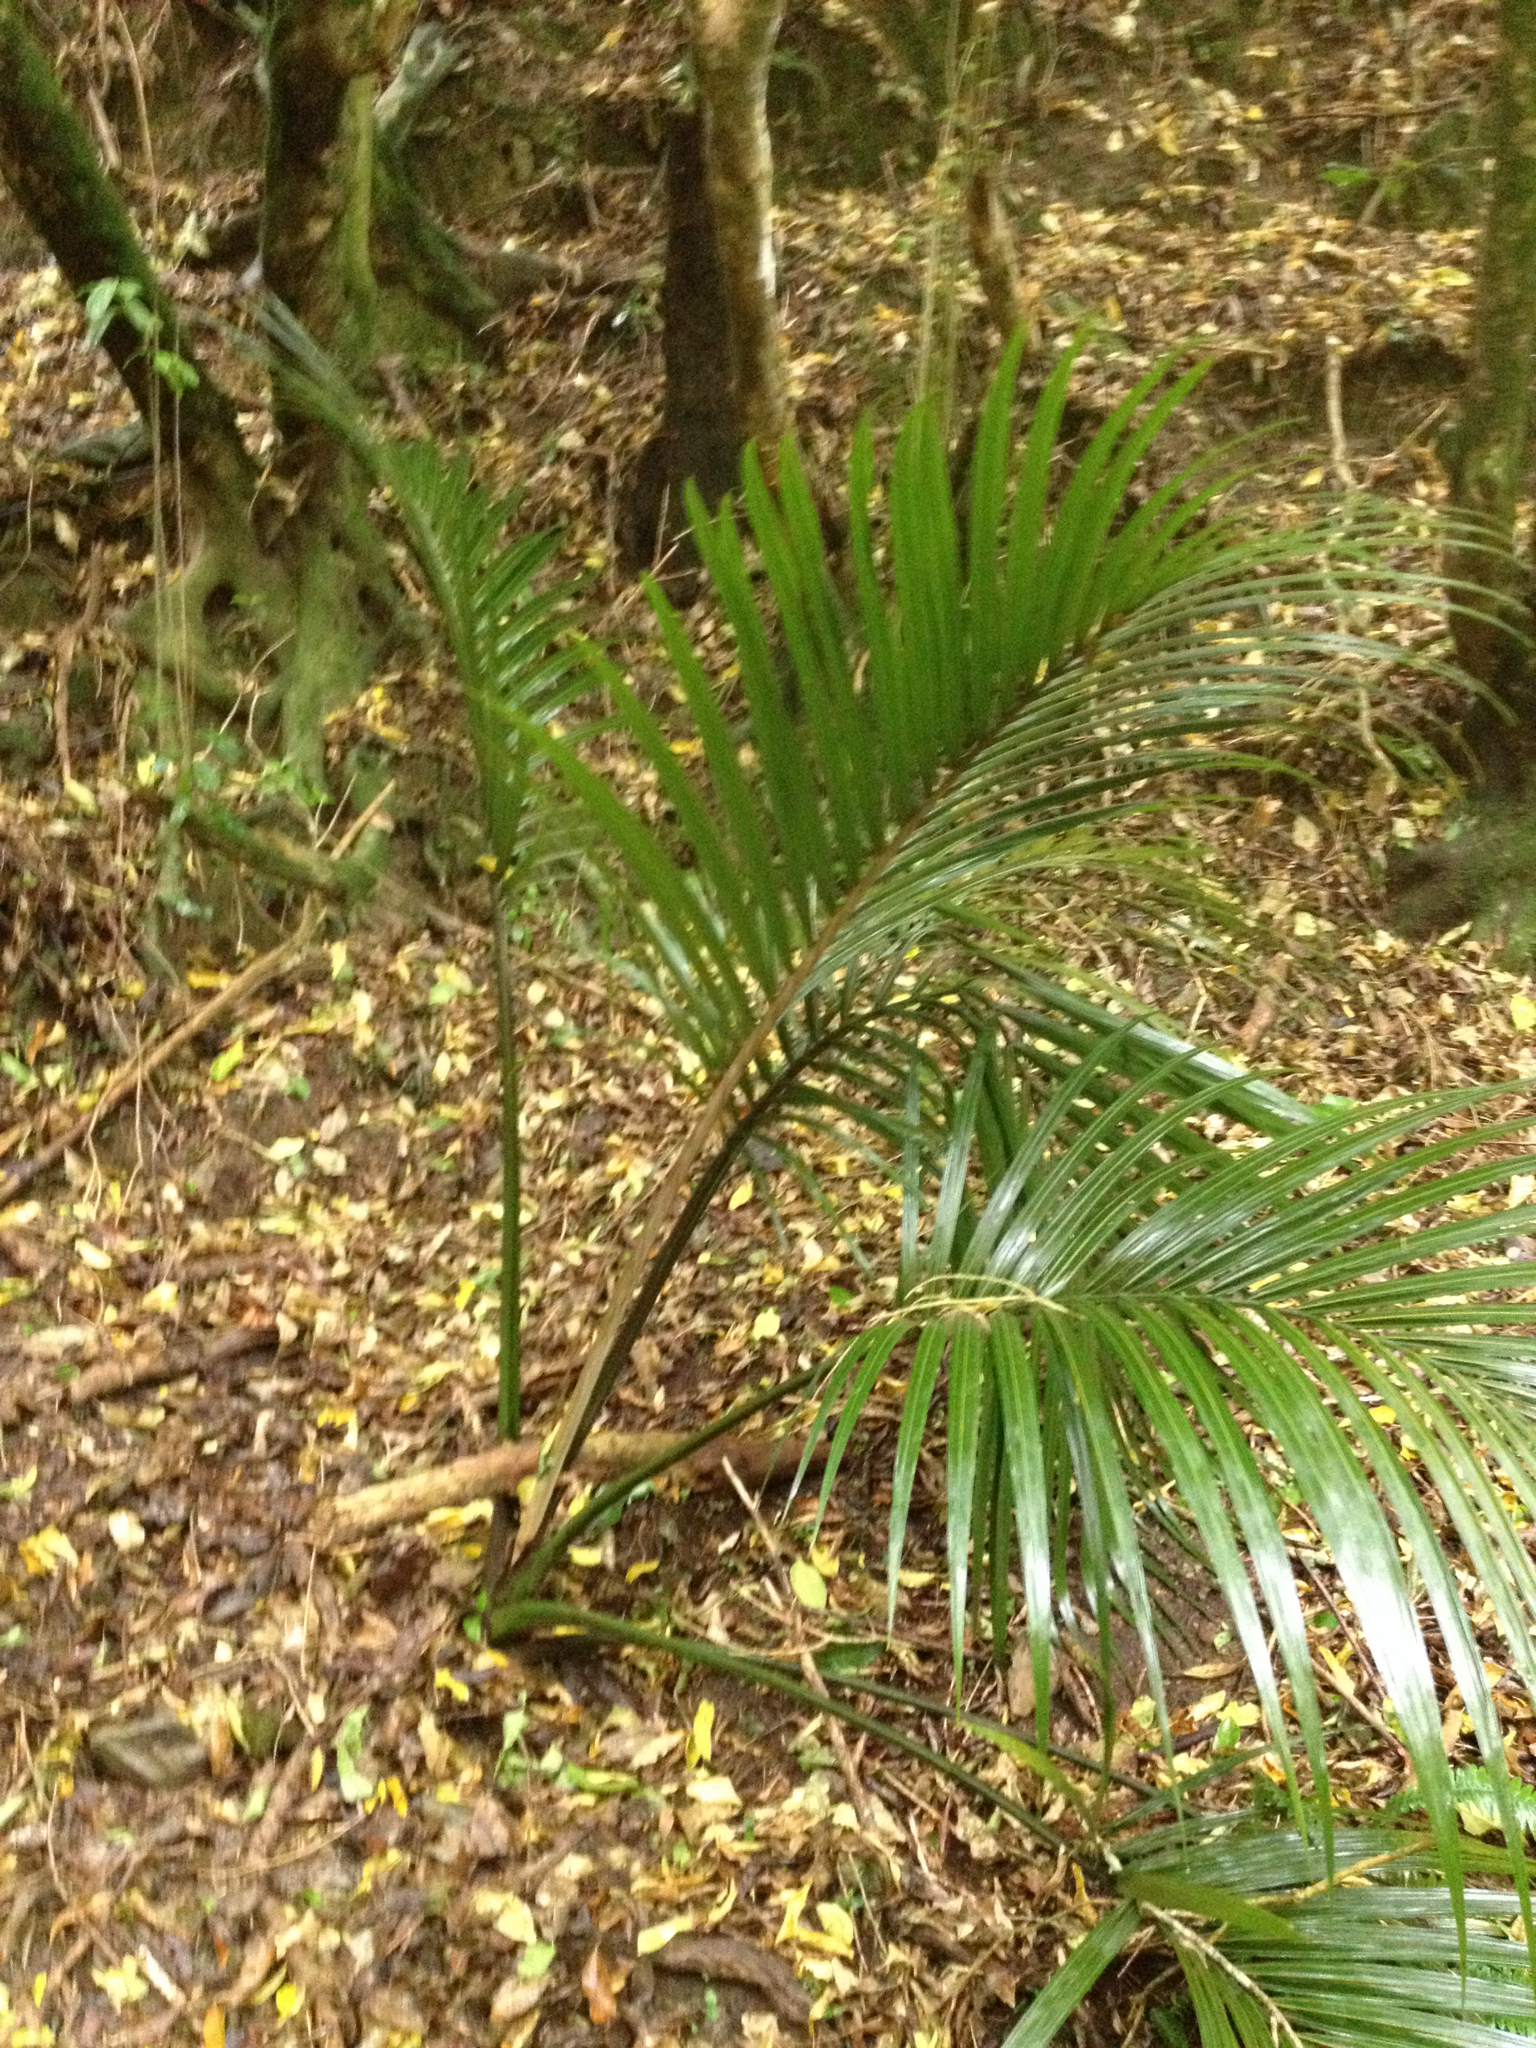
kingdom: Plantae
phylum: Tracheophyta
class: Liliopsida
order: Arecales
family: Arecaceae
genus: Rhopalostylis
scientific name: Rhopalostylis sapida
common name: Feather-duster palm
